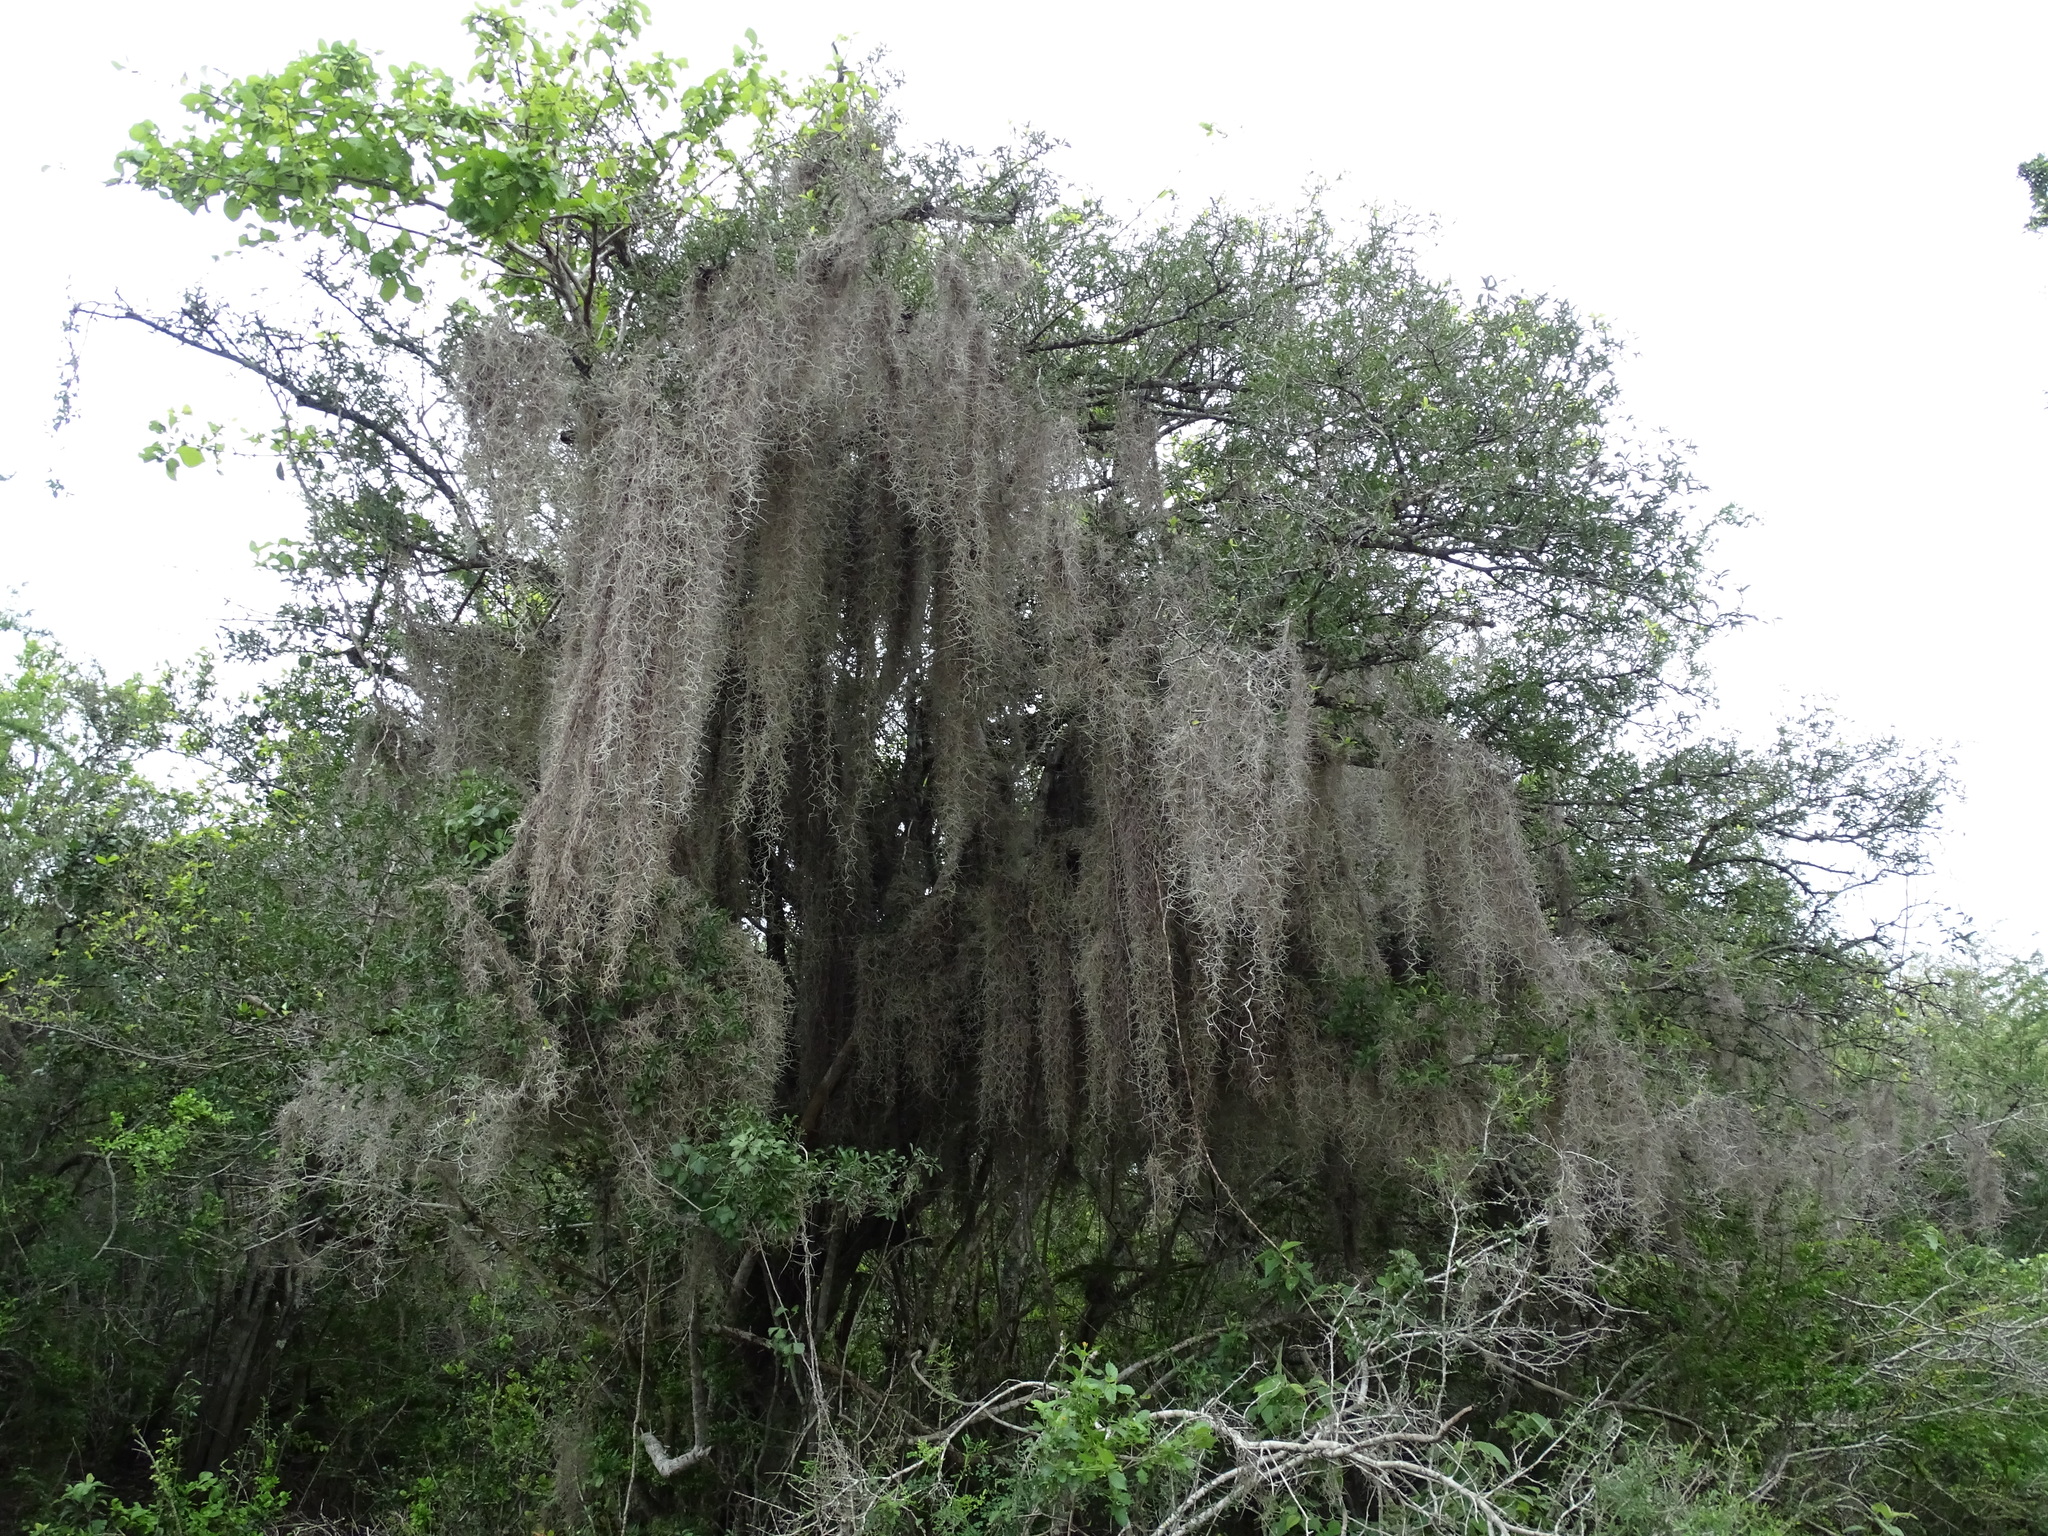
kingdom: Plantae
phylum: Tracheophyta
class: Liliopsida
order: Poales
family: Bromeliaceae
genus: Tillandsia
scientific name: Tillandsia usneoides
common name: Spanish moss
